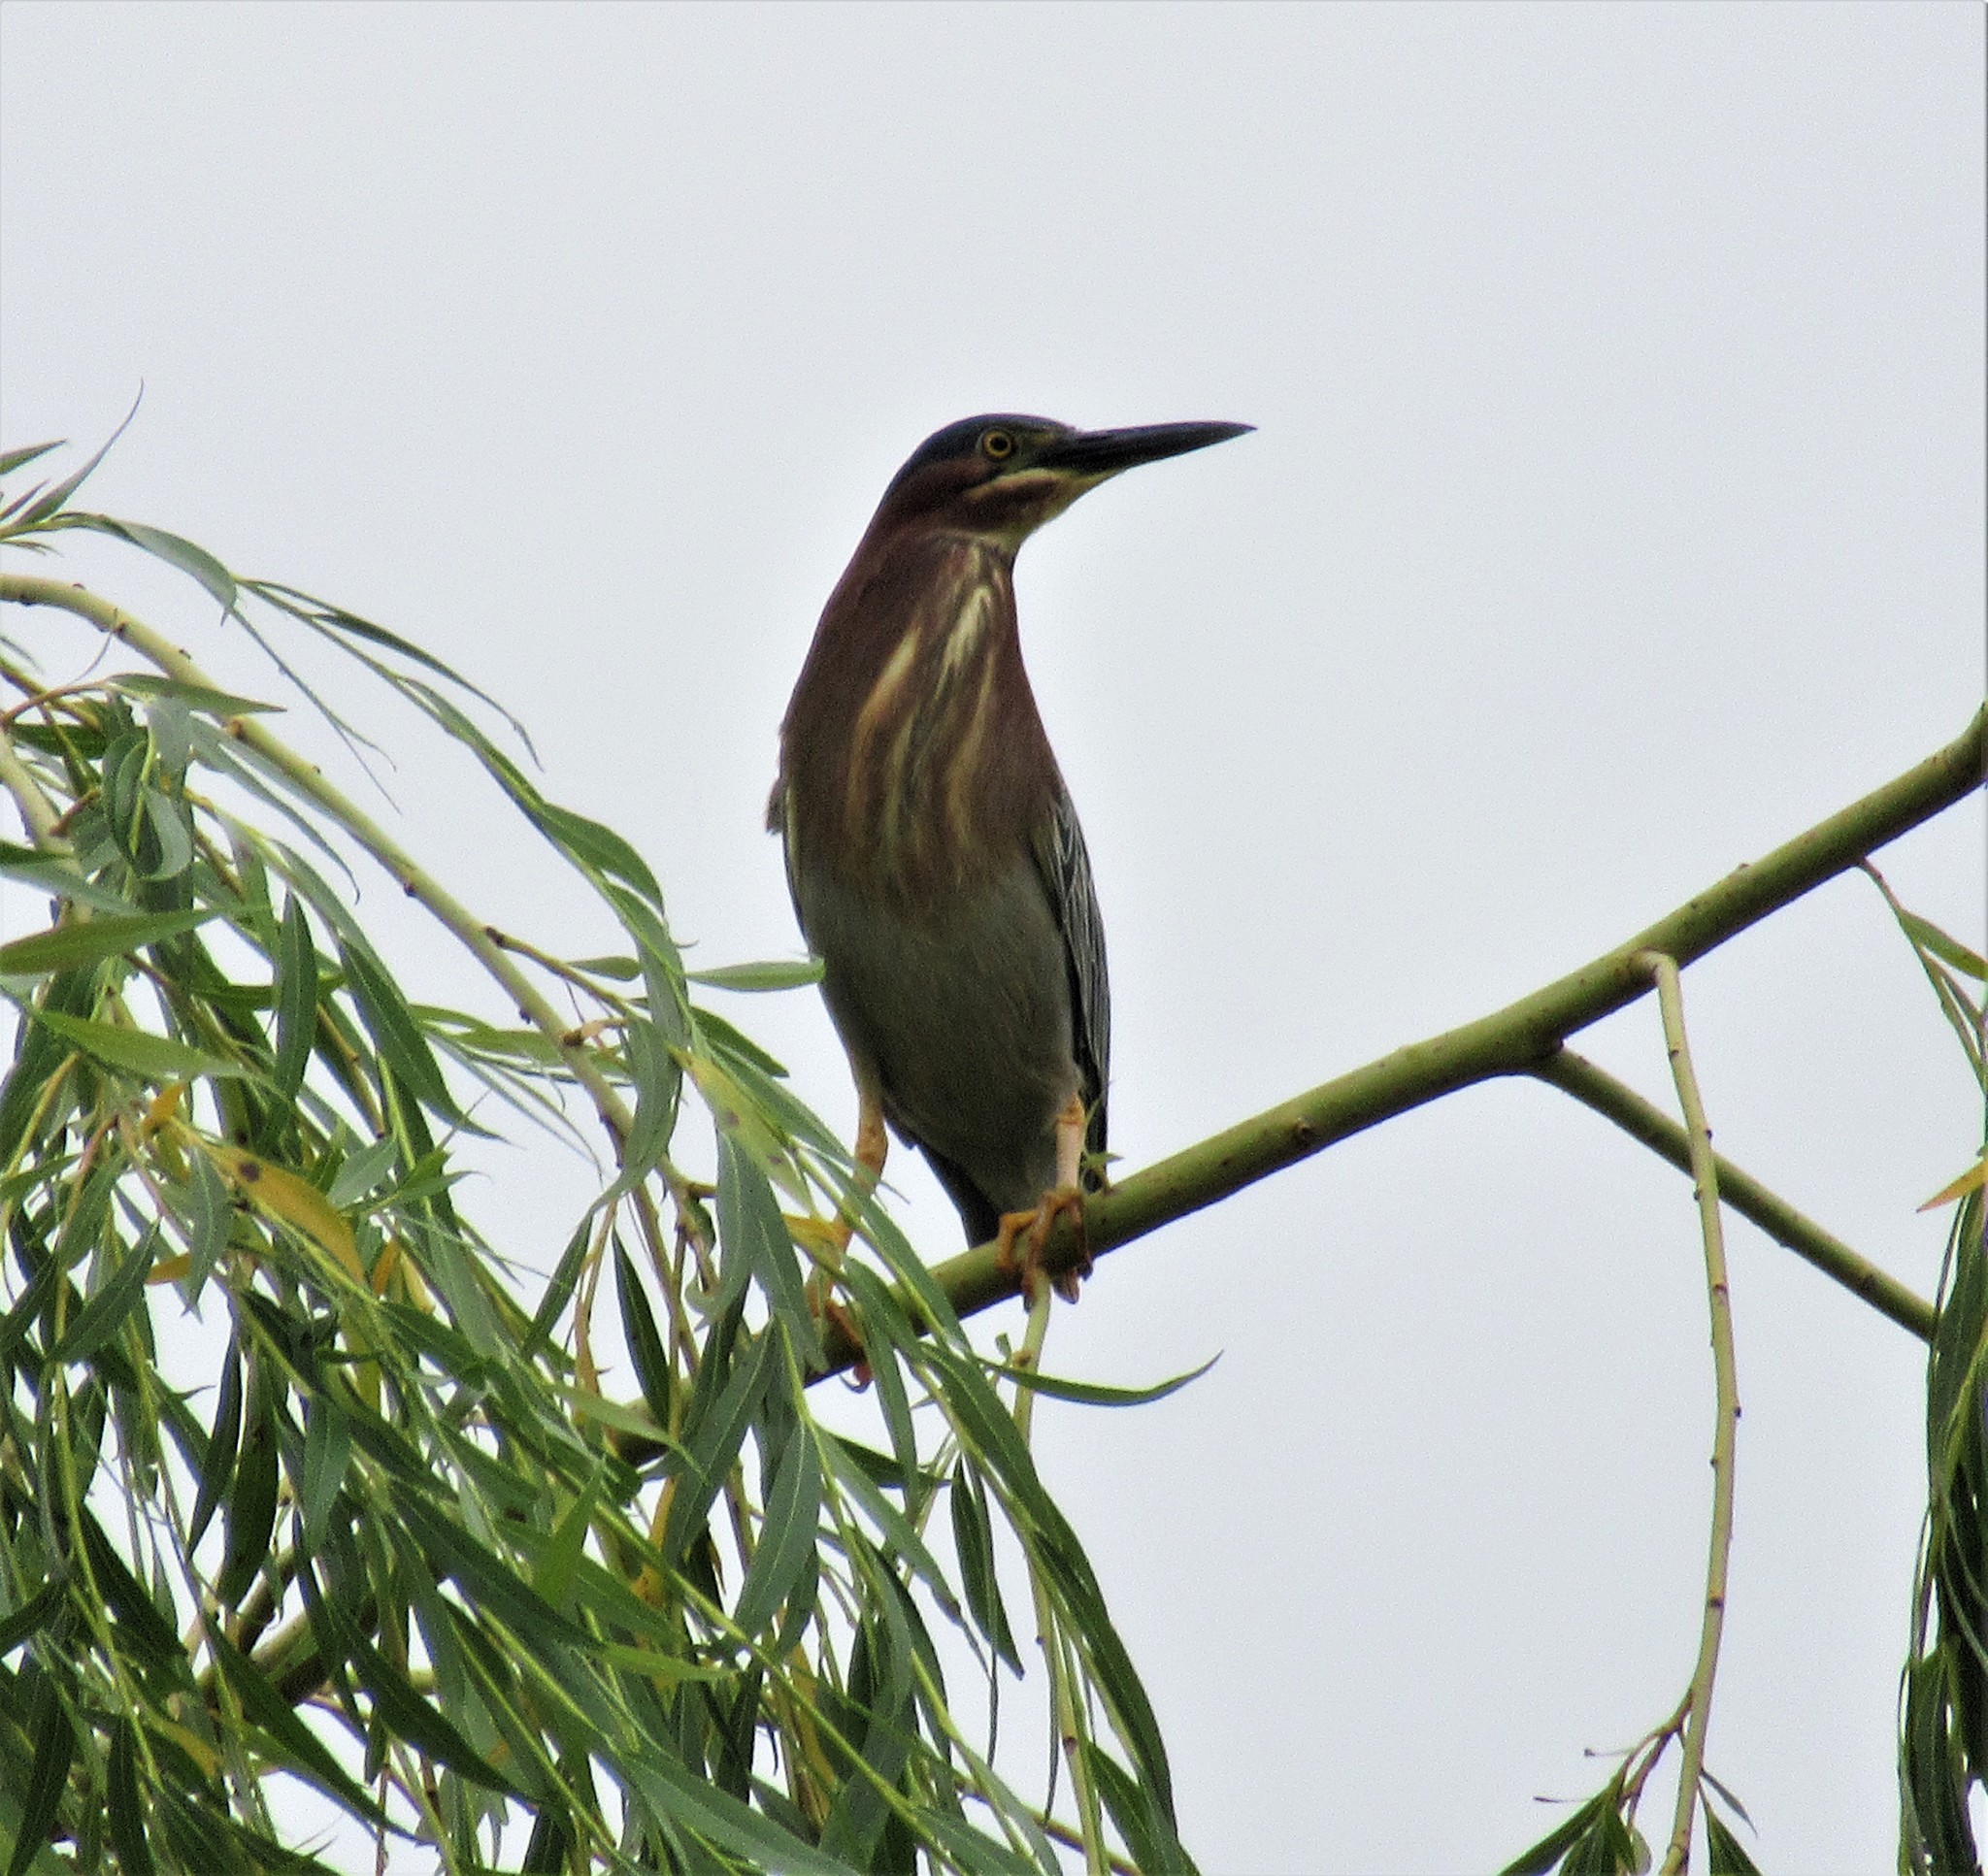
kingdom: Animalia
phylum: Chordata
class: Aves
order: Pelecaniformes
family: Ardeidae
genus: Butorides
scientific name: Butorides virescens
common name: Green heron
